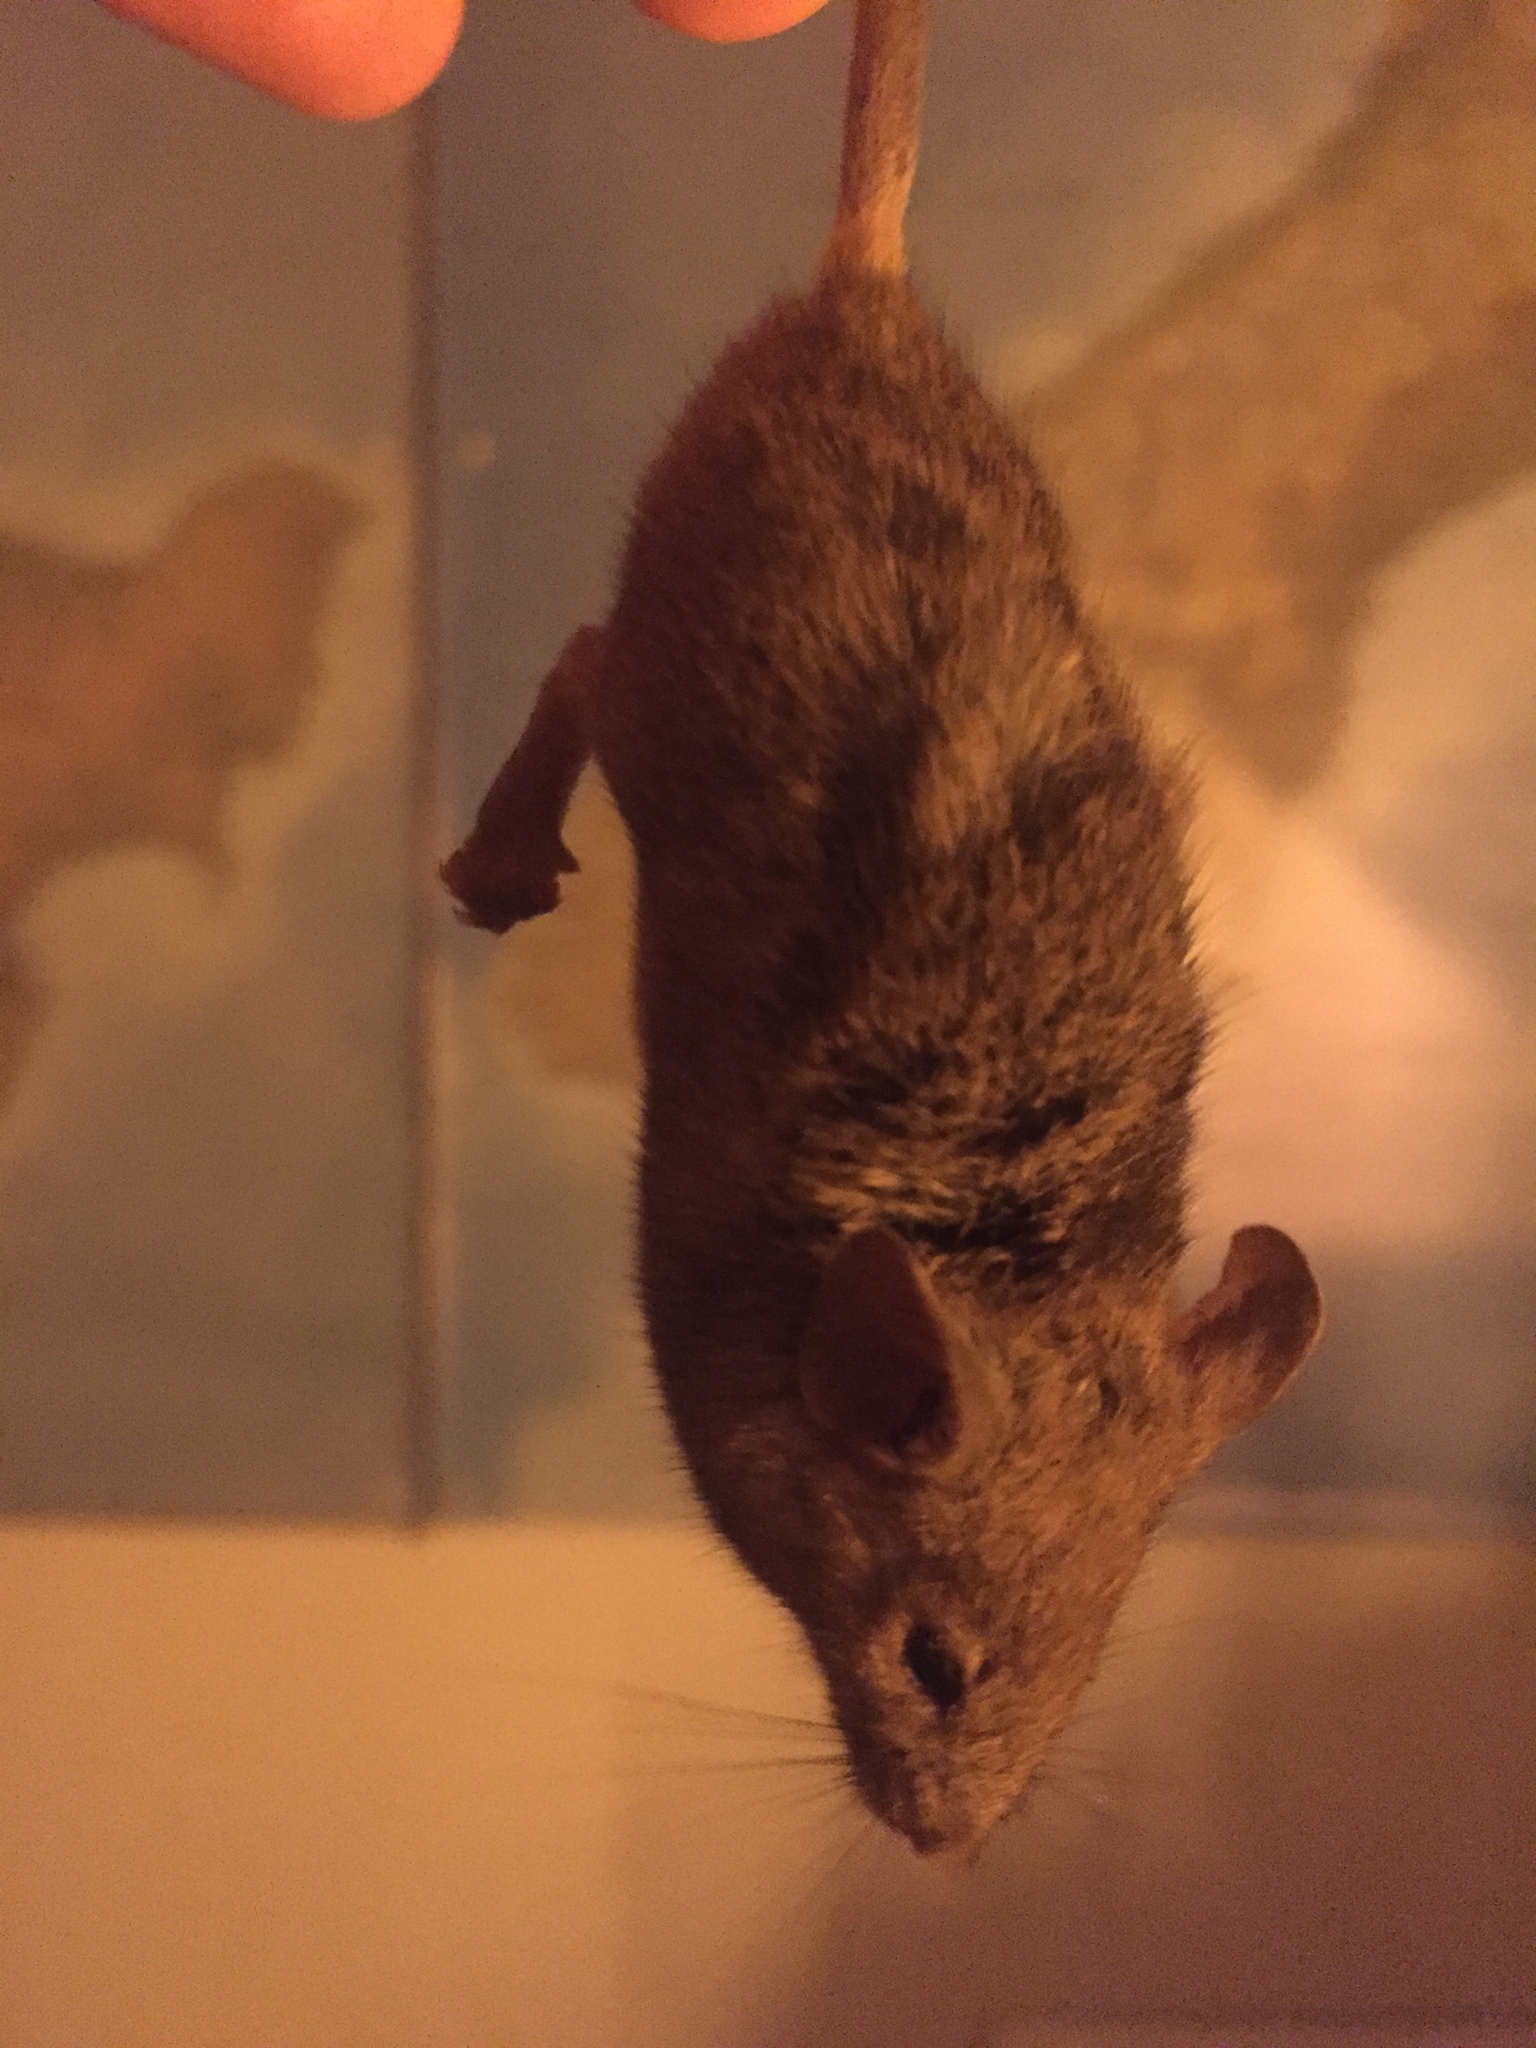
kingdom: Animalia
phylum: Chordata
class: Mammalia
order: Rodentia
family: Muridae
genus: Mus
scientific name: Mus musculus
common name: House mouse
